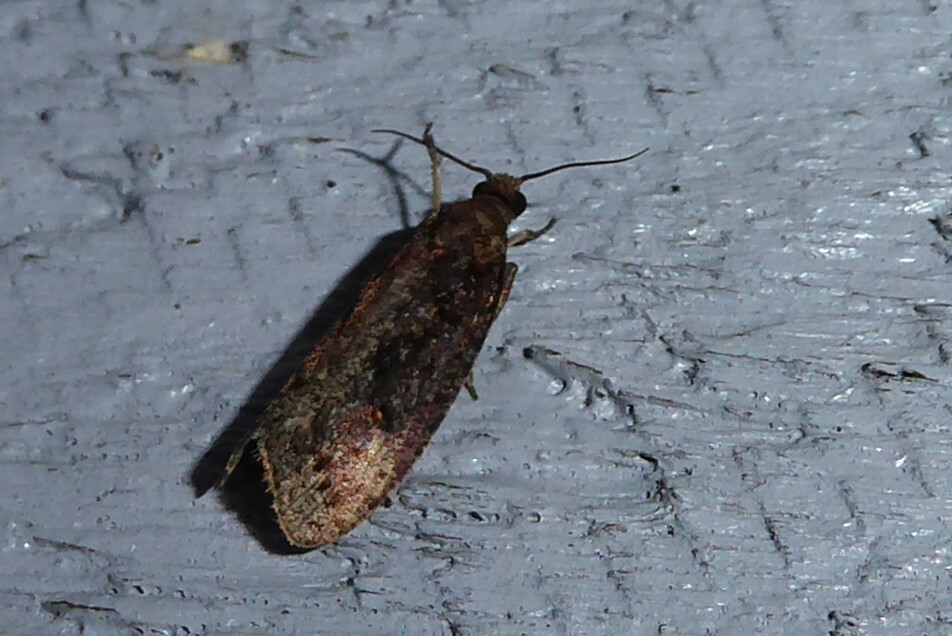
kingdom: Animalia
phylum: Arthropoda
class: Insecta
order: Lepidoptera
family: Tortricidae
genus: Cryptaspasma
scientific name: Cryptaspasma querula
